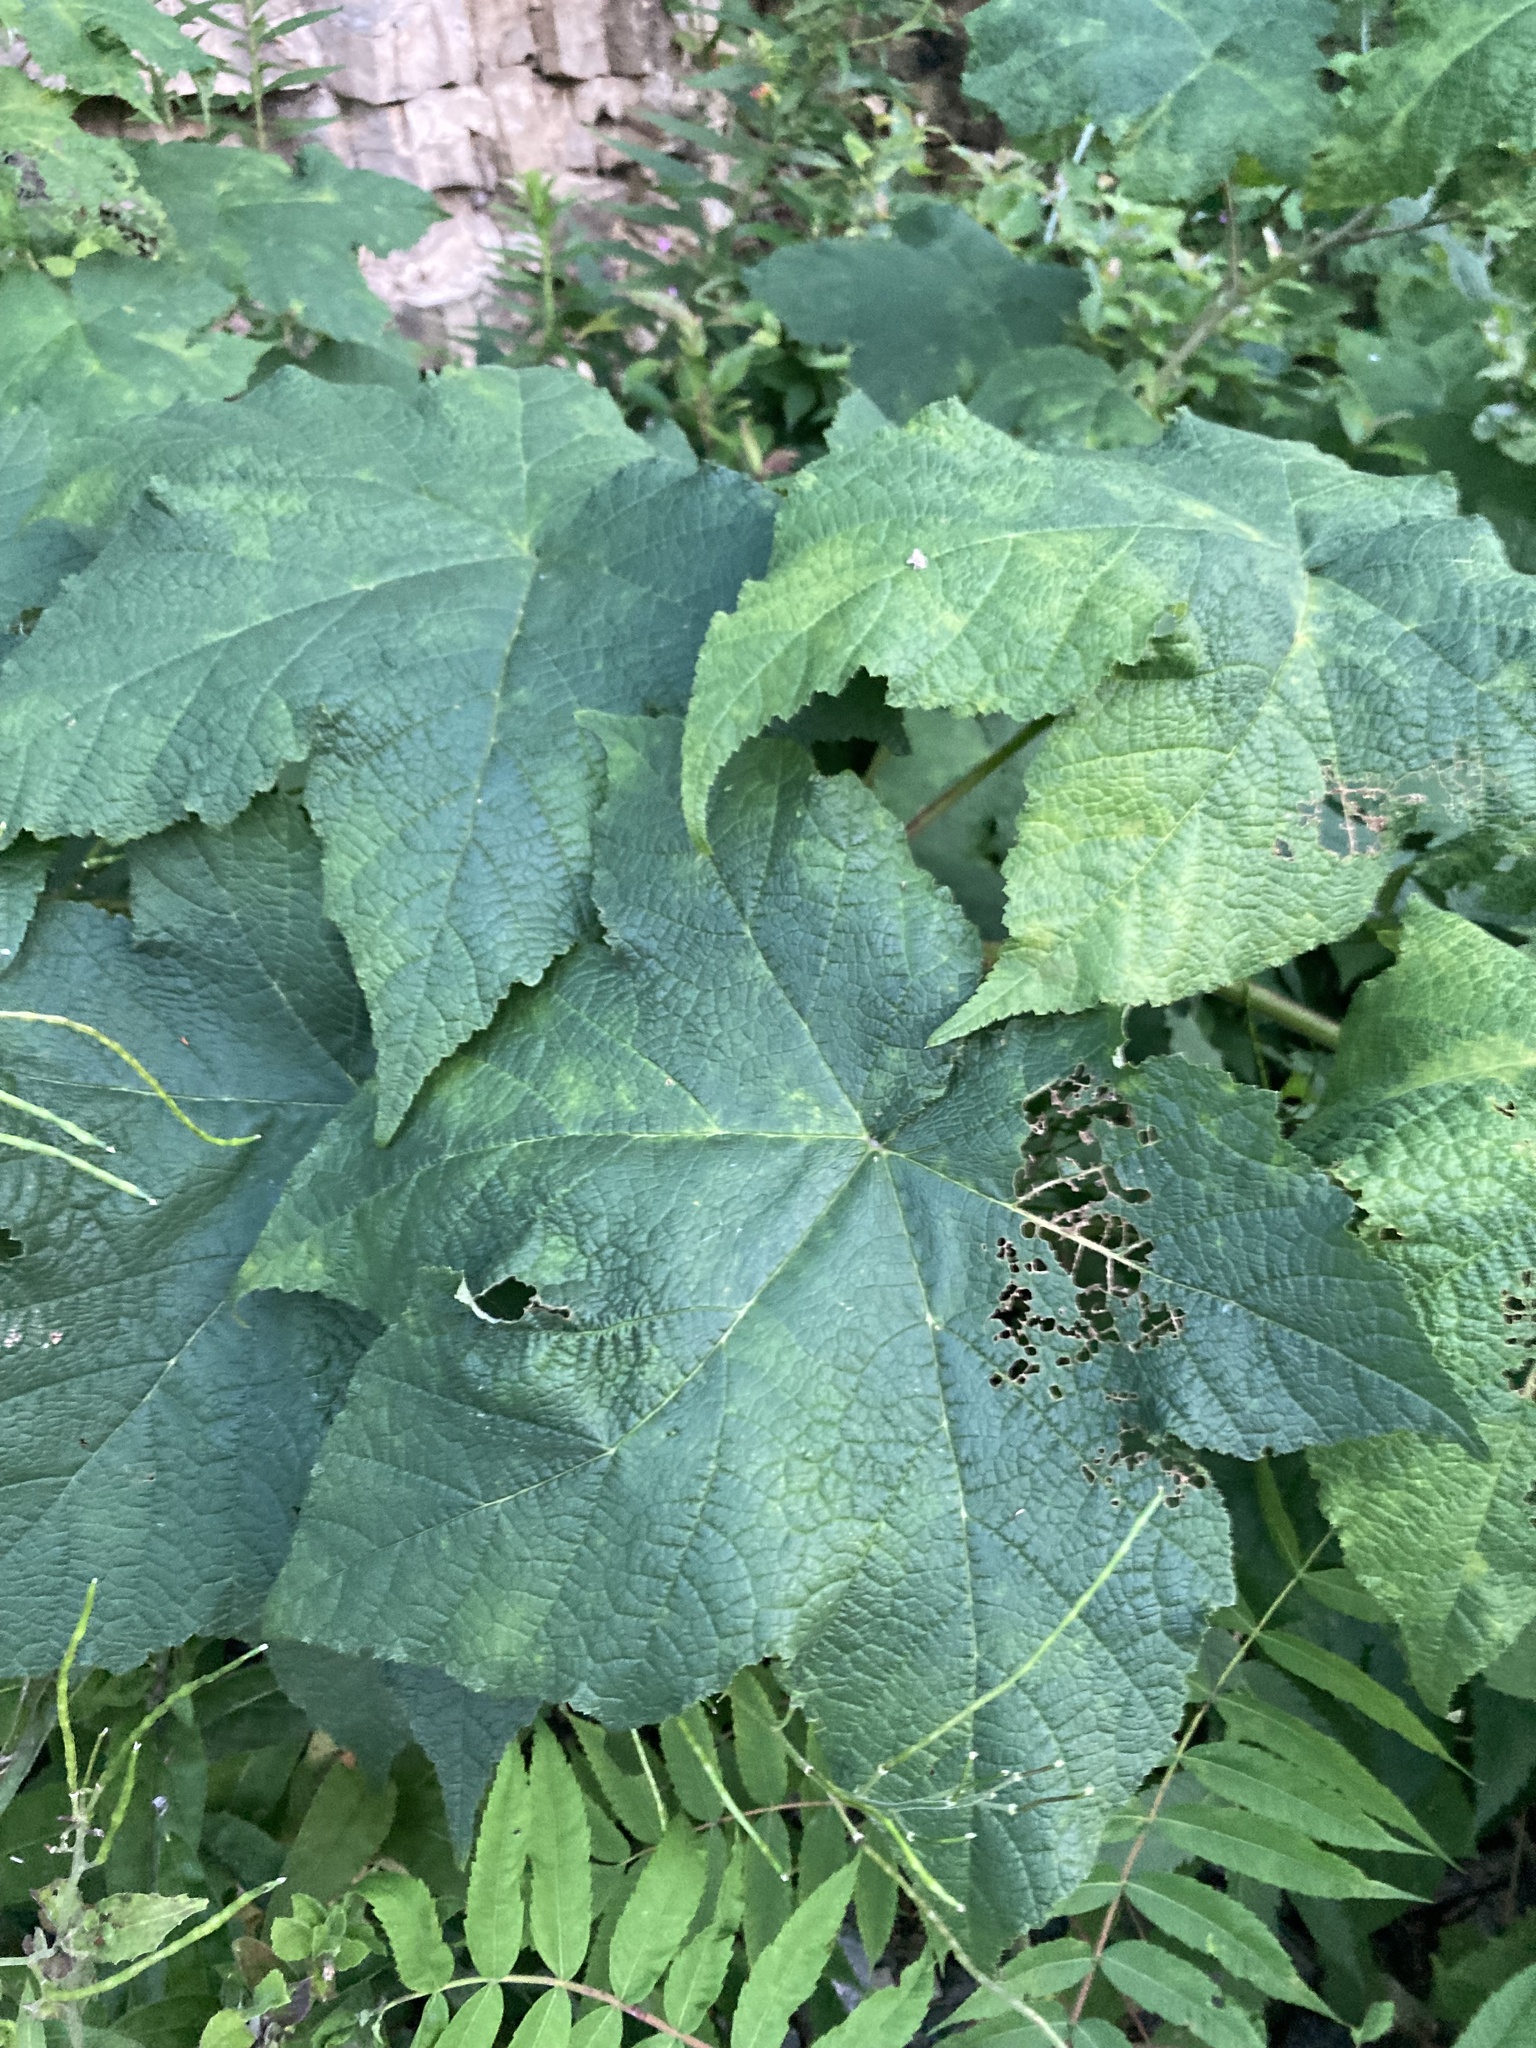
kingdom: Plantae
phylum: Tracheophyta
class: Magnoliopsida
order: Rosales
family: Rosaceae
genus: Rubus
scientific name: Rubus odoratus
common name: Purple-flowered raspberry
